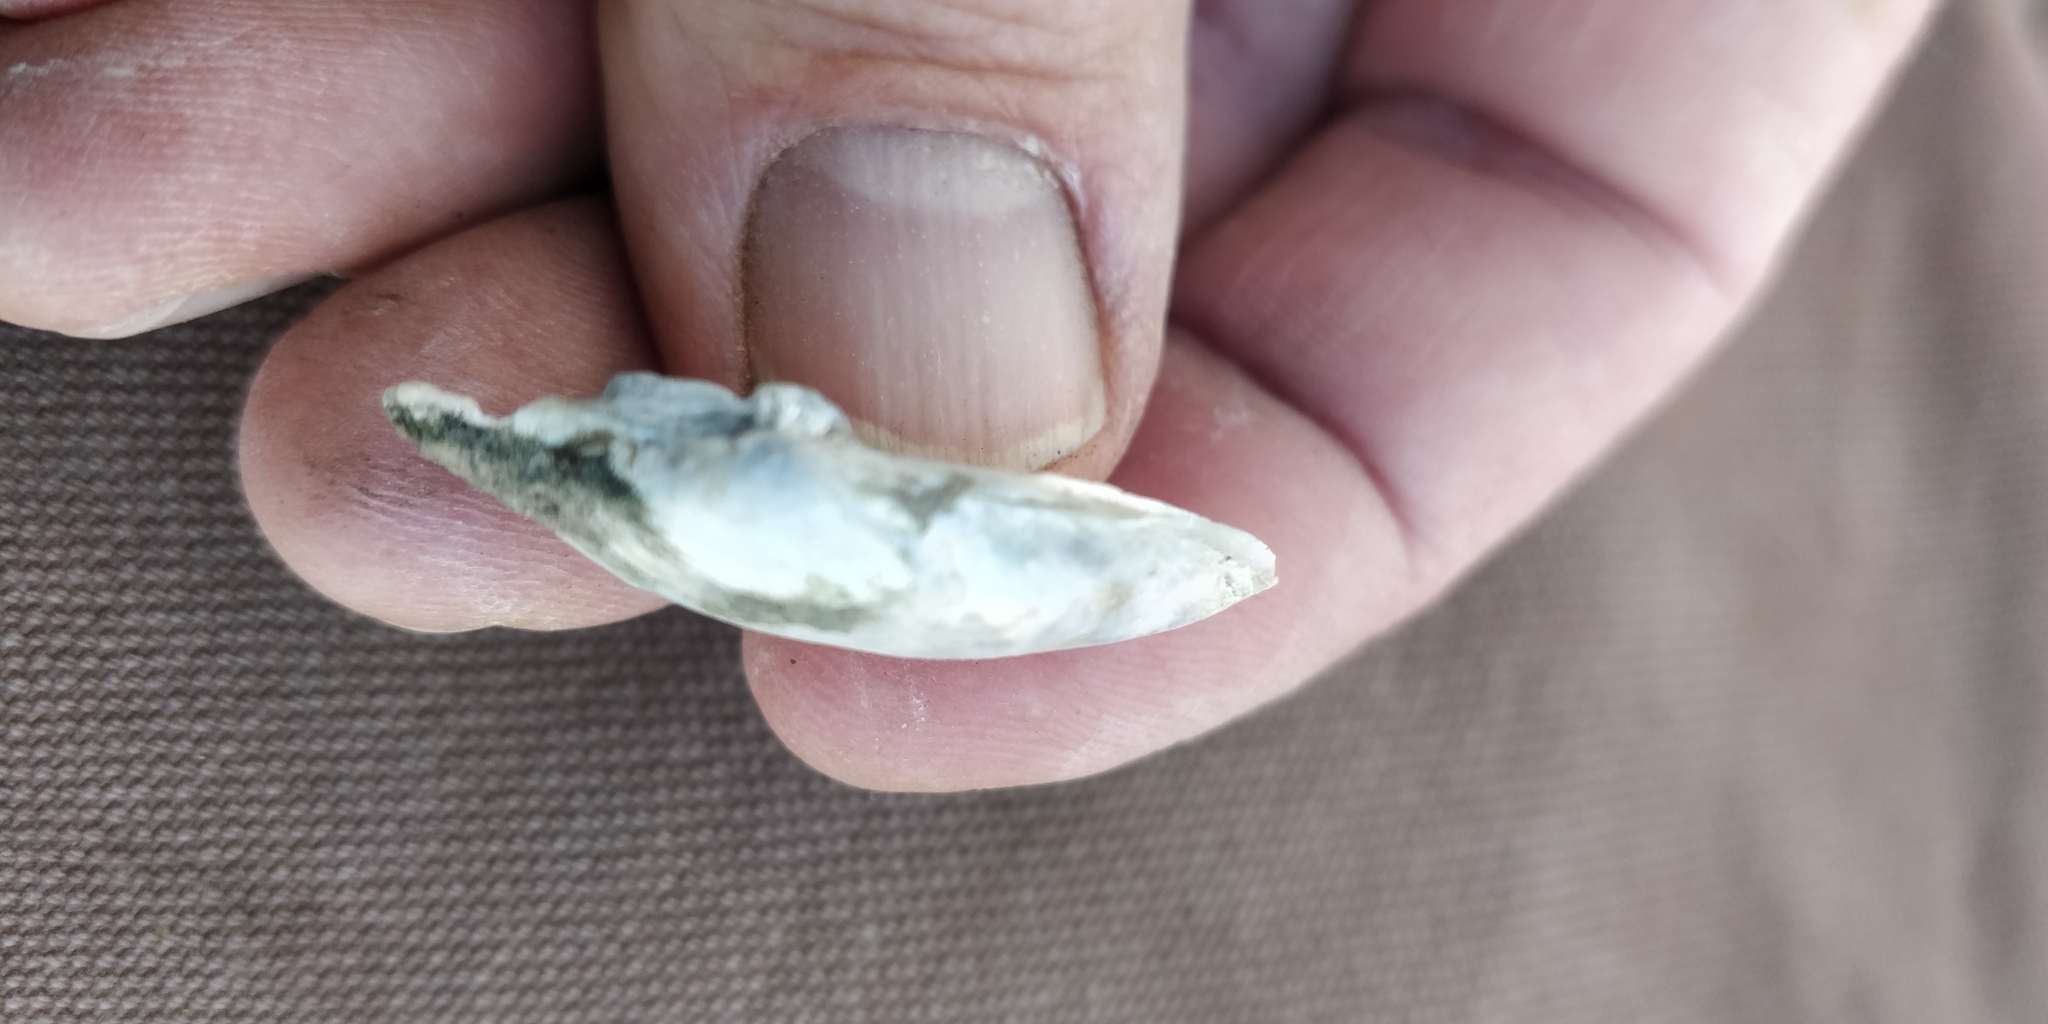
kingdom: Animalia
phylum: Mollusca
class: Bivalvia
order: Unionida
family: Unionidae
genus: Truncilla
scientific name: Truncilla donaciformis
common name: Fawnsfoot
